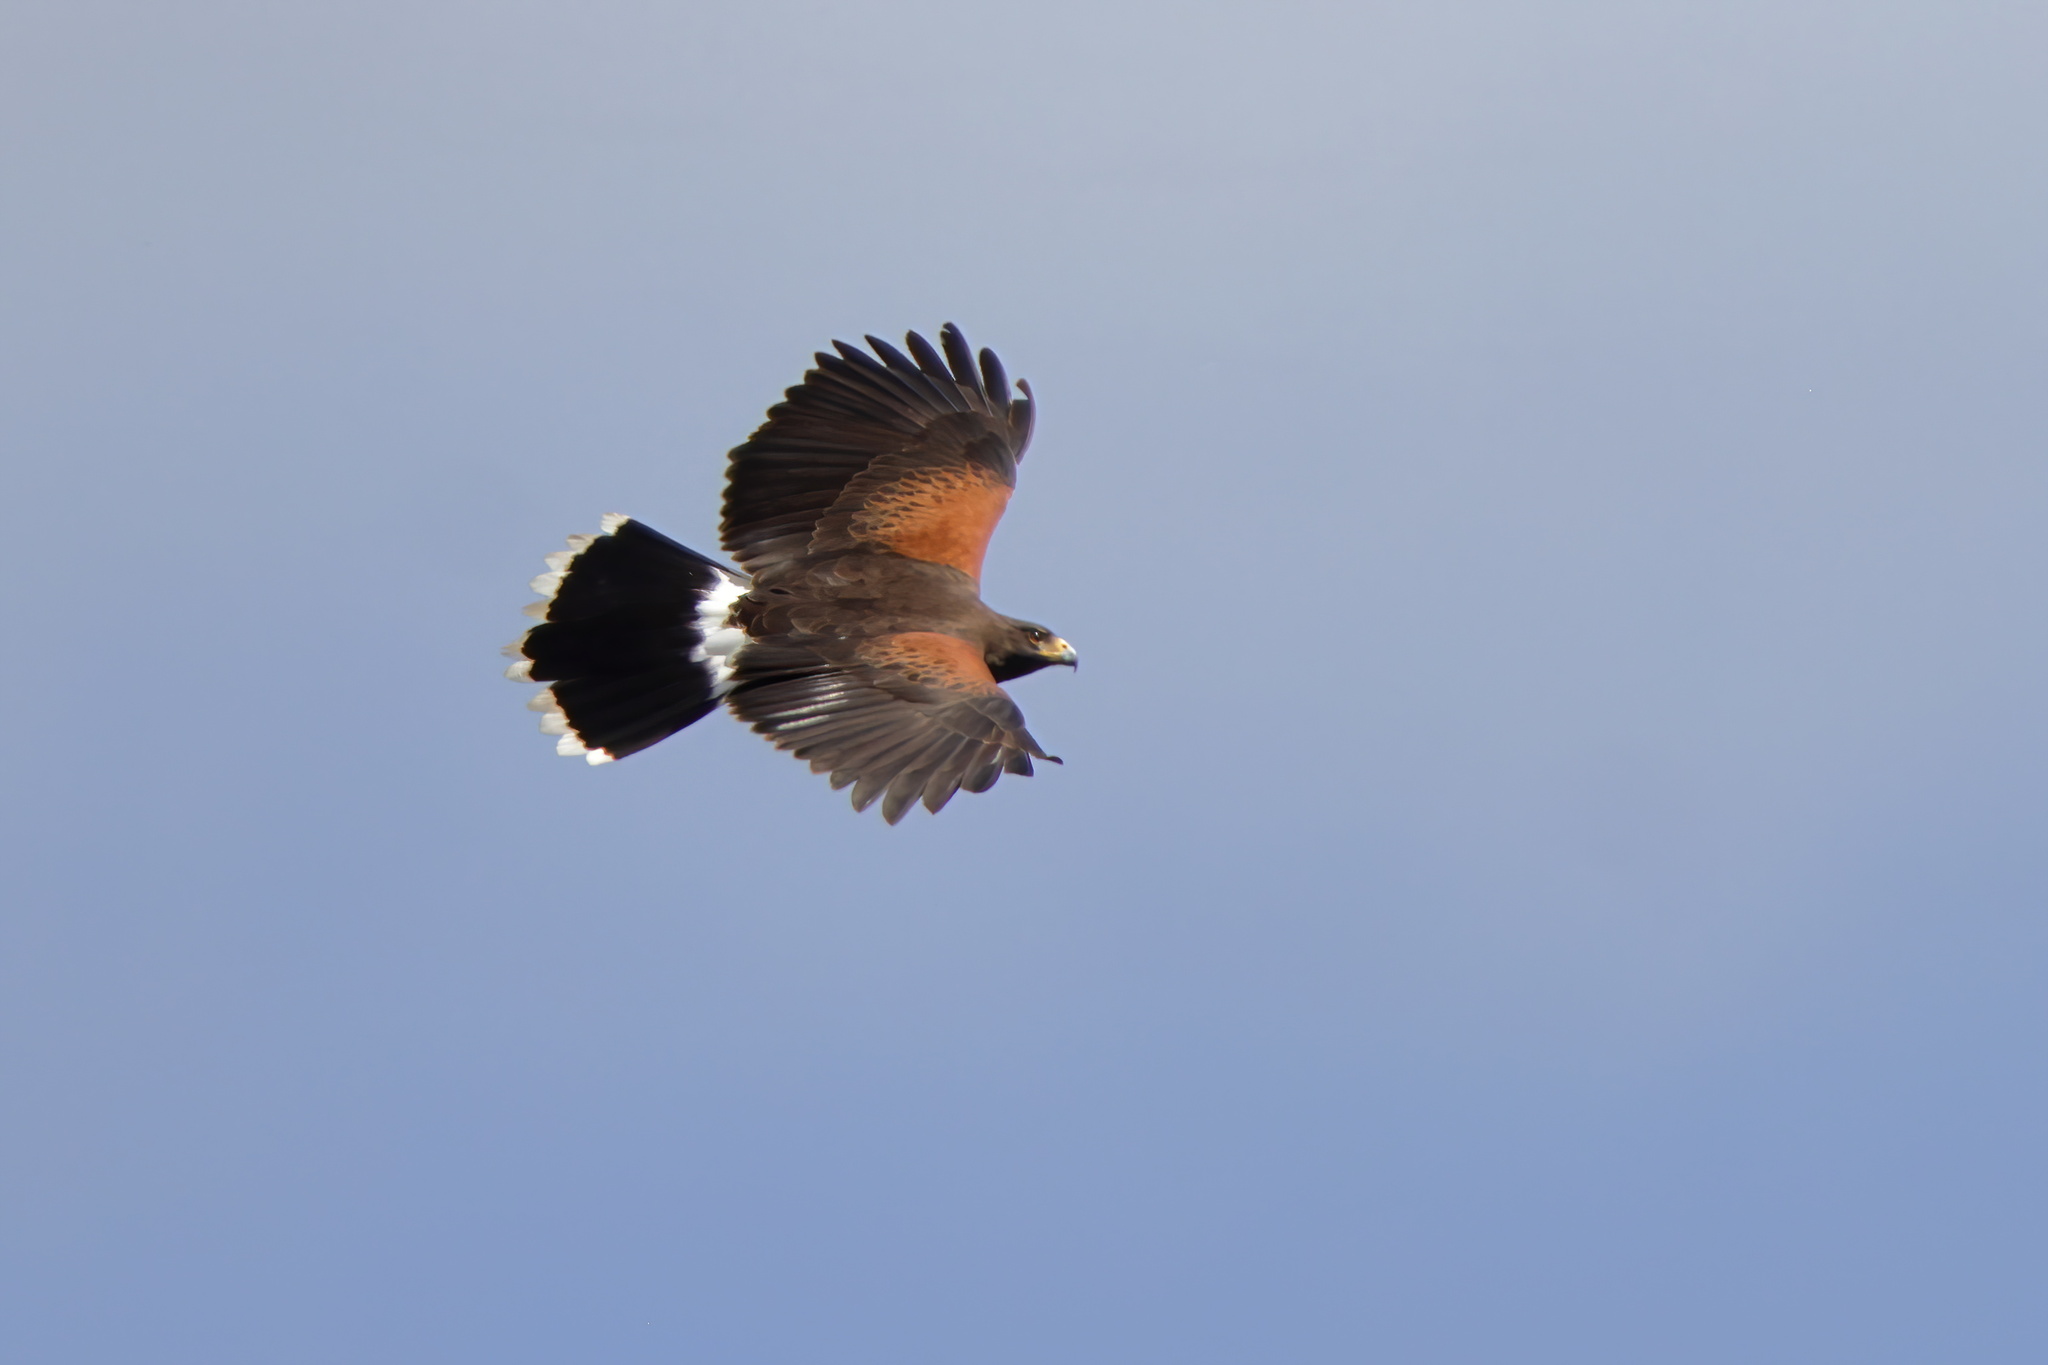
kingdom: Animalia
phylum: Chordata
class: Aves
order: Accipitriformes
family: Accipitridae
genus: Parabuteo
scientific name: Parabuteo unicinctus
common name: Harris's hawk
